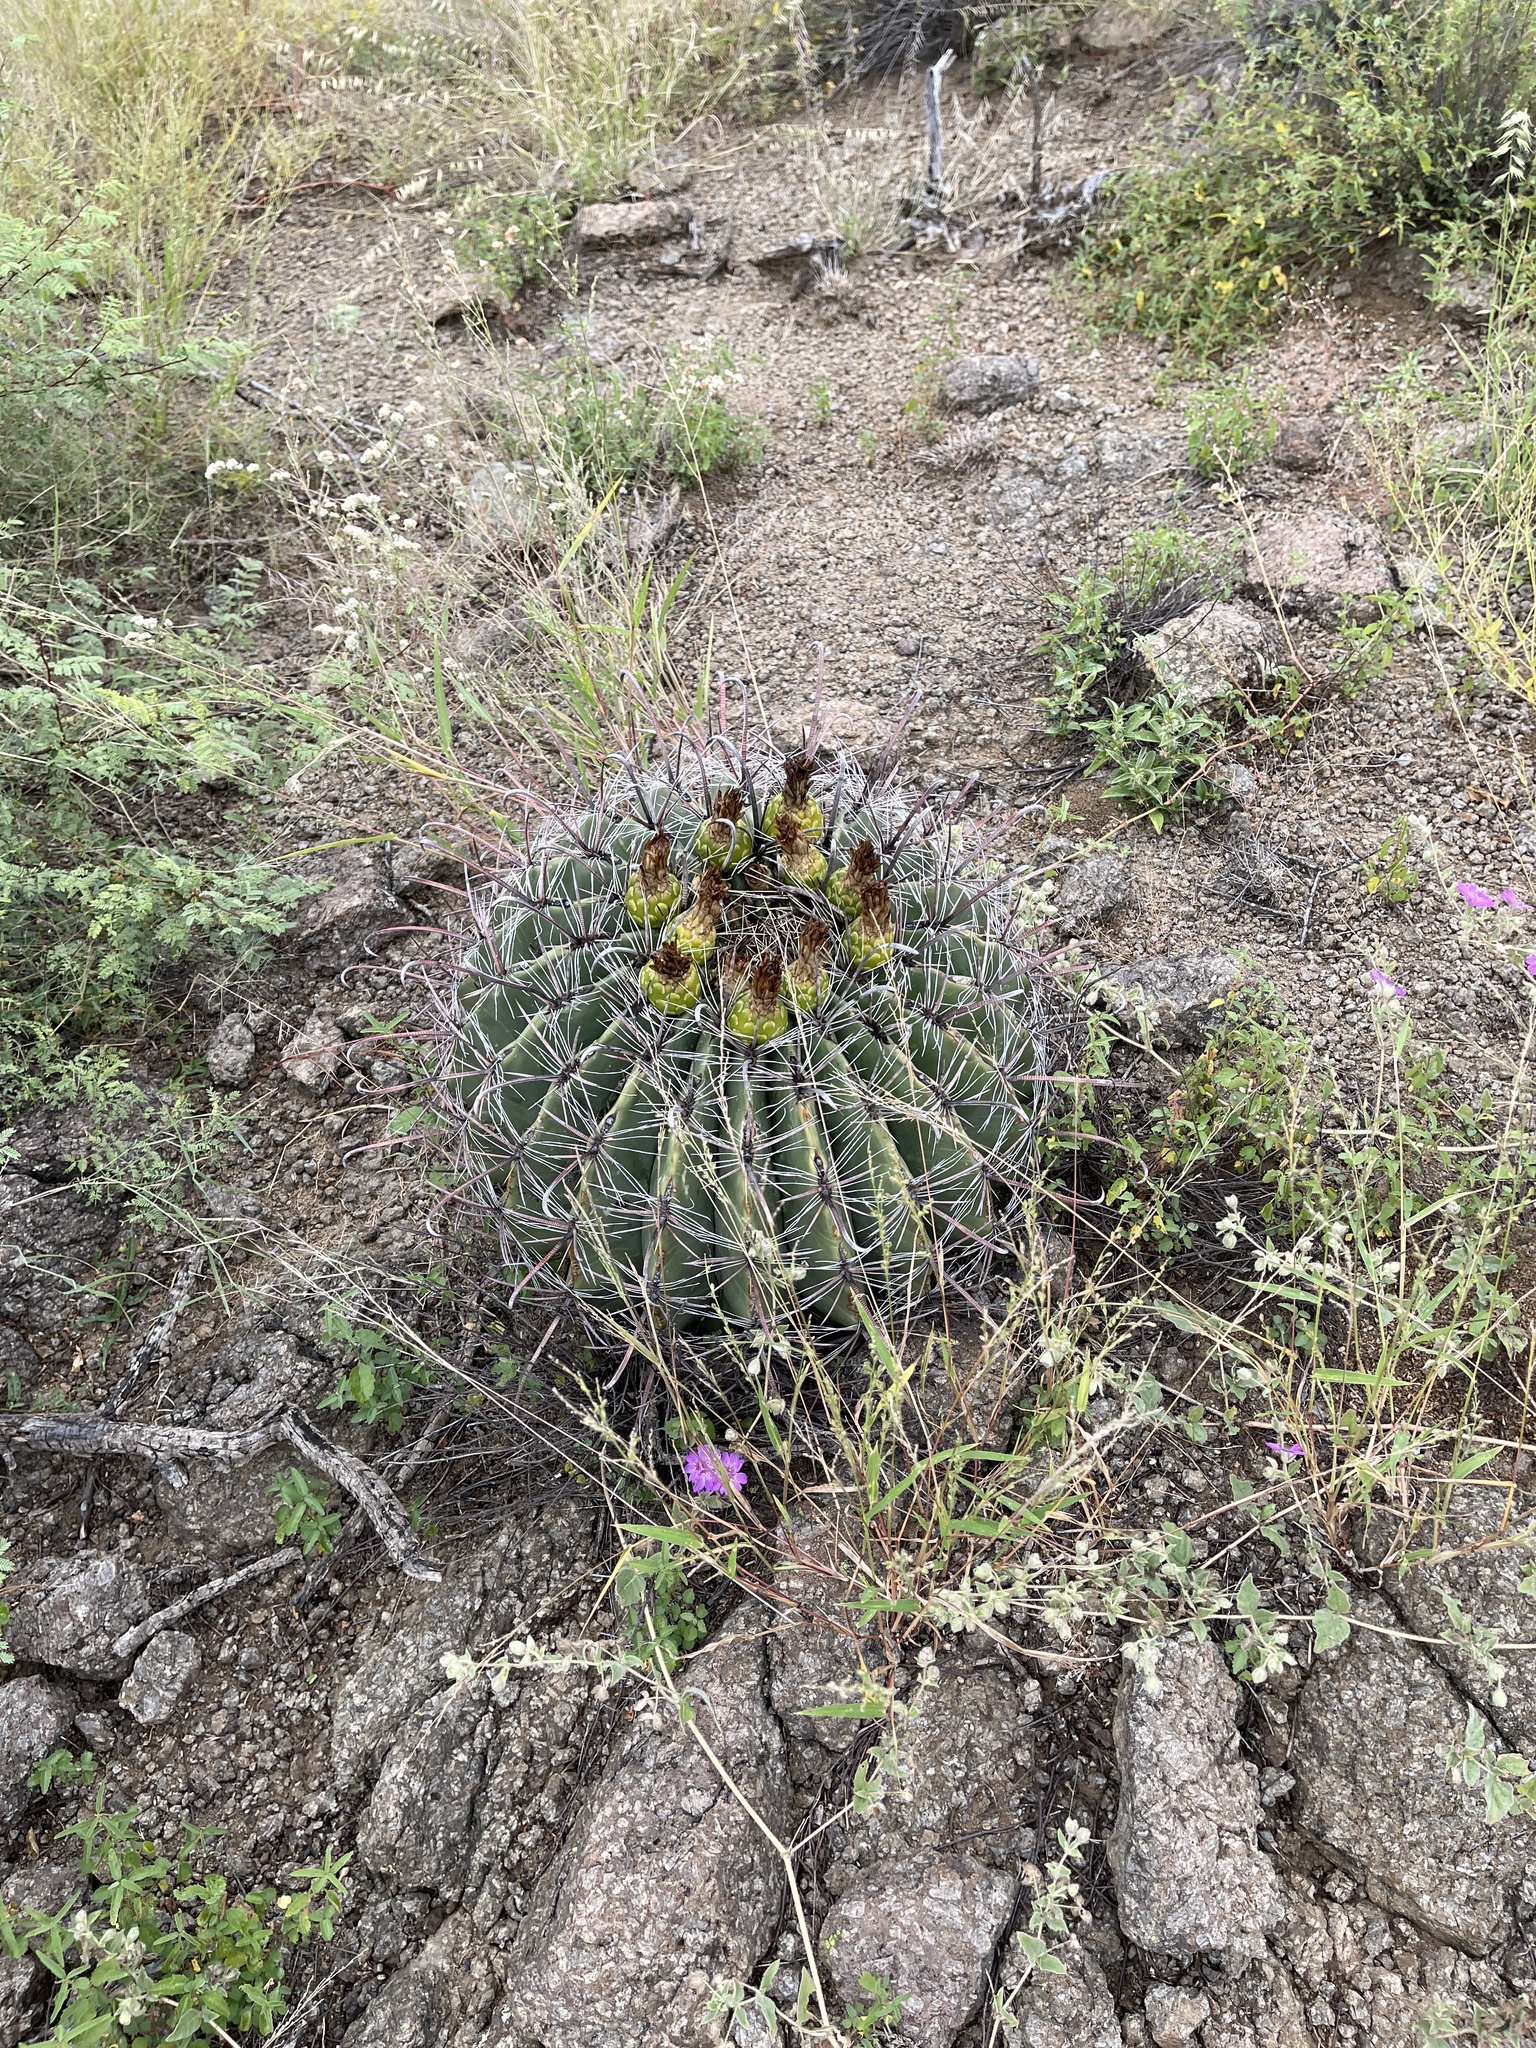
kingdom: Plantae
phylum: Tracheophyta
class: Magnoliopsida
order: Caryophyllales
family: Cactaceae
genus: Ferocactus
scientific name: Ferocactus wislizeni
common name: Candy barrel cactus
